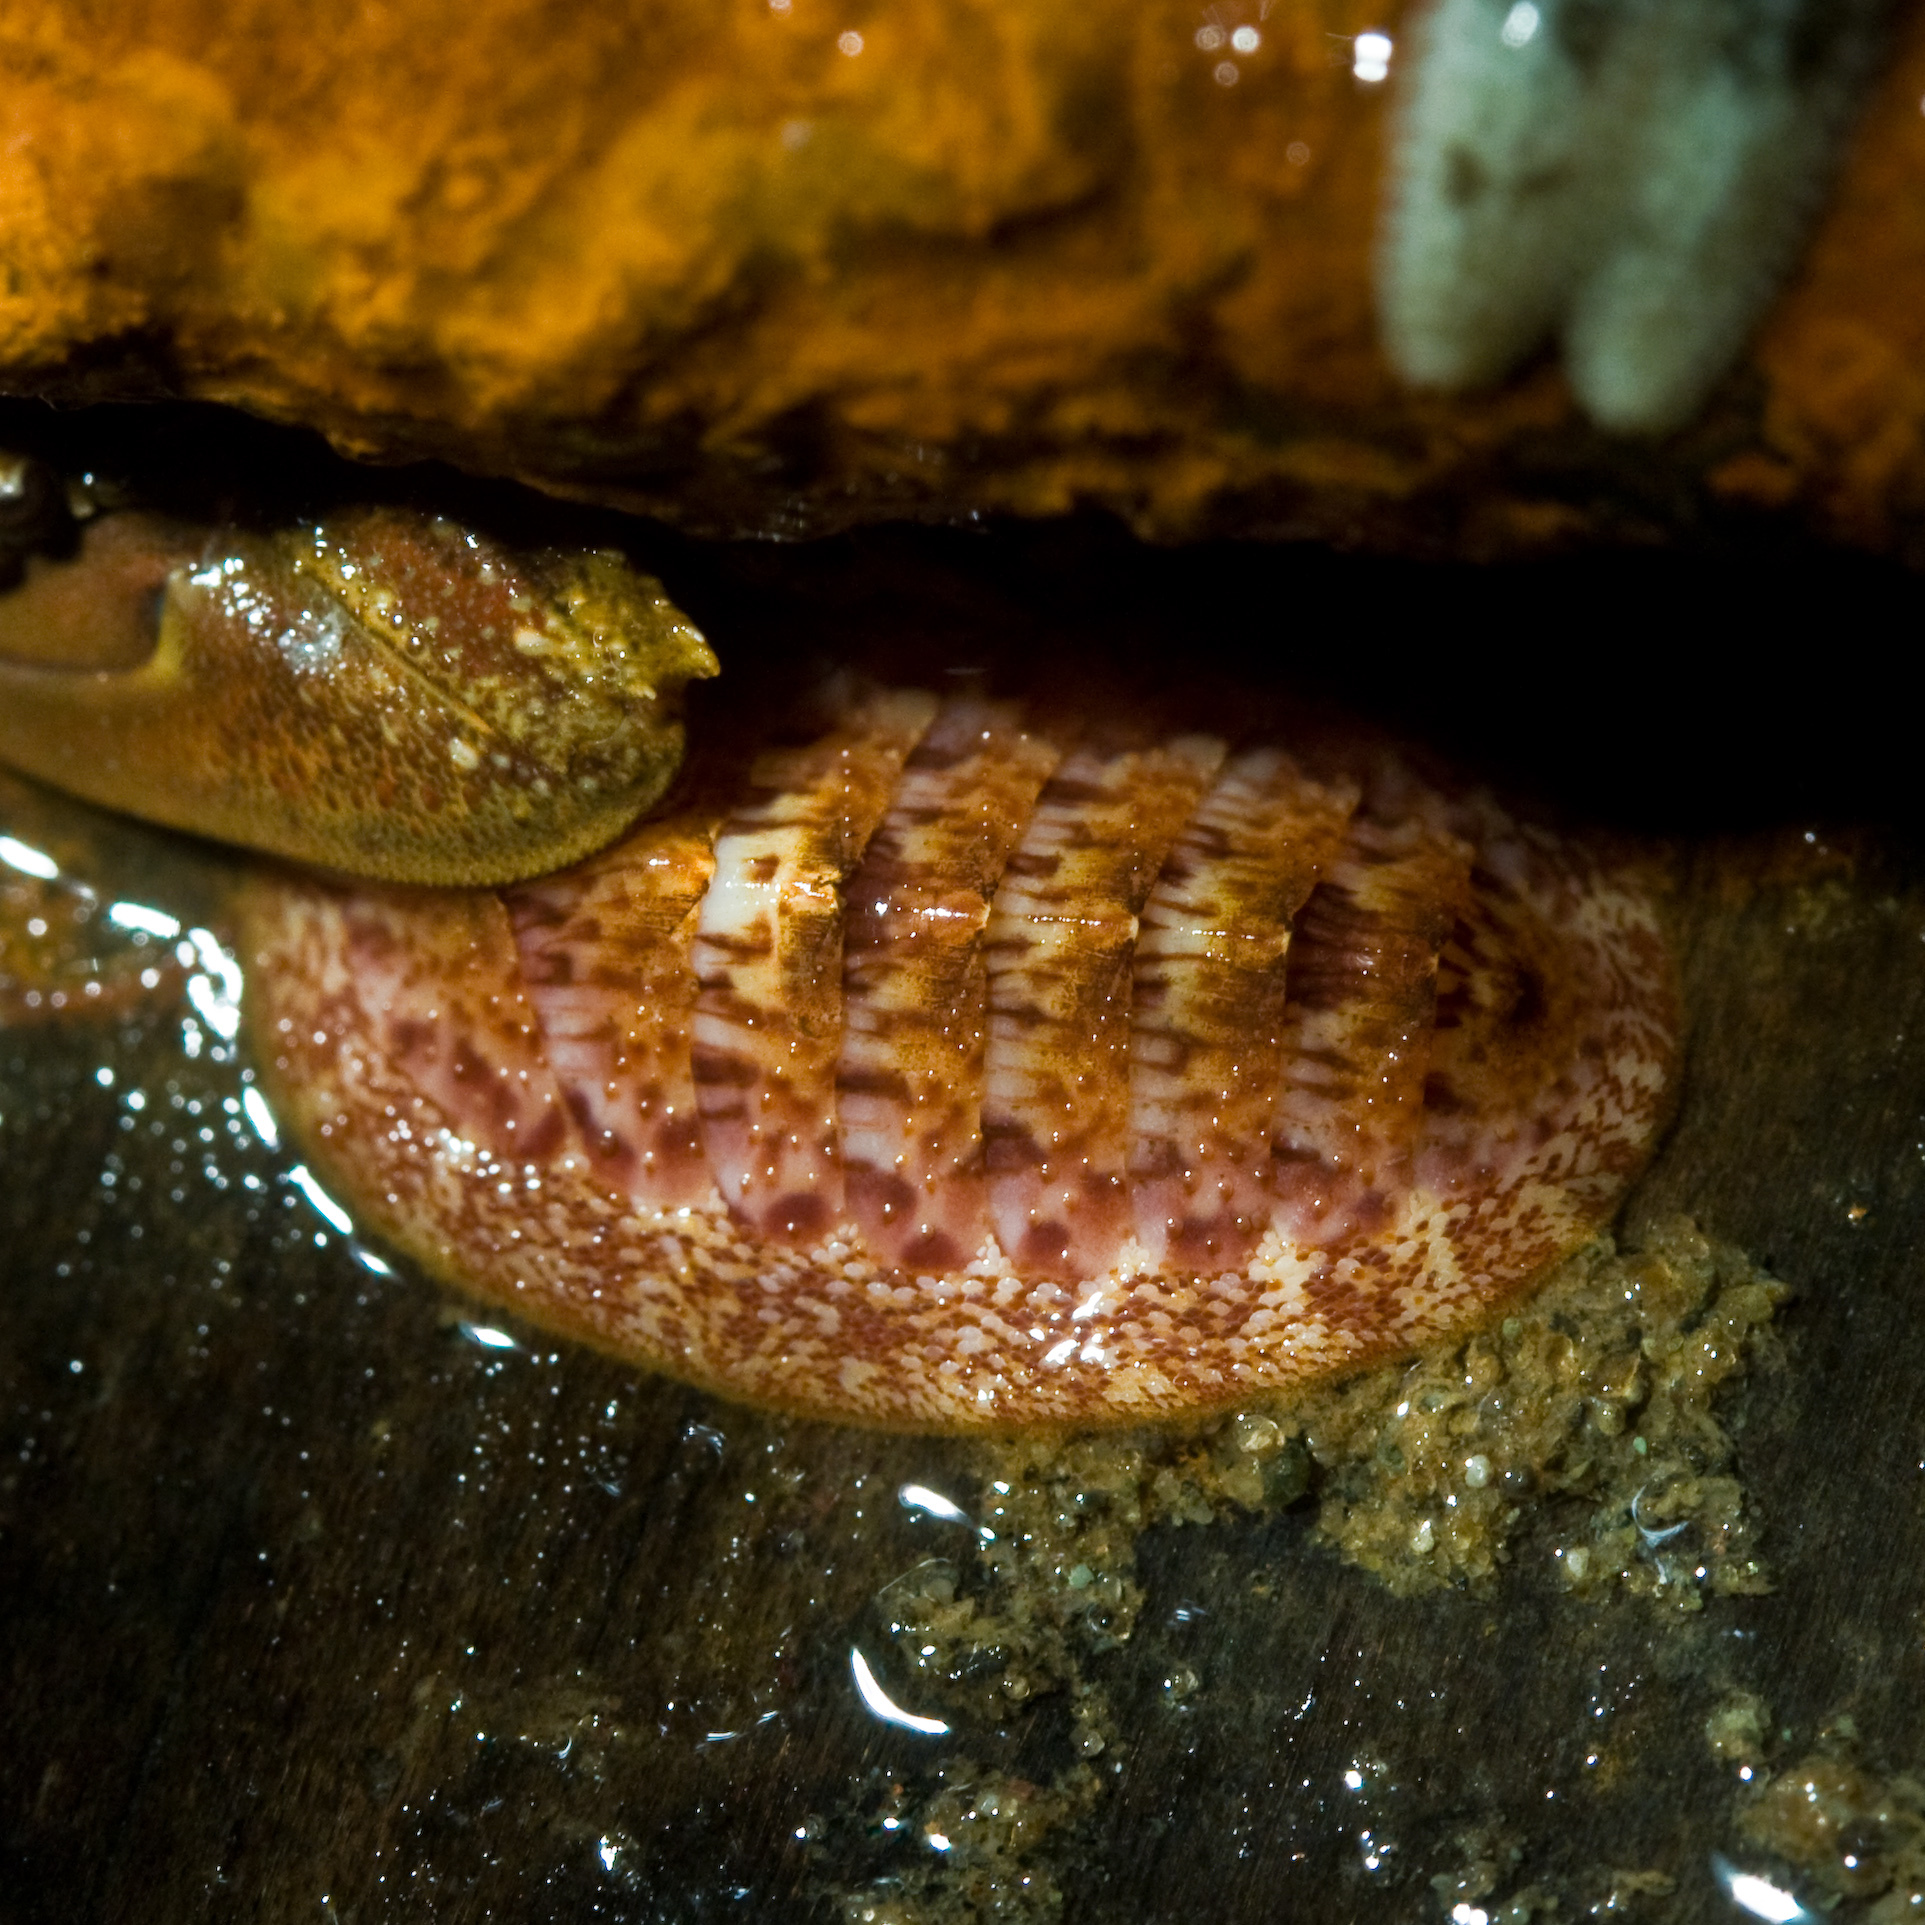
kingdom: Animalia
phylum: Mollusca
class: Polyplacophora
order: Chitonida
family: Ischnochitonidae
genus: Lepidozona
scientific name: Lepidozona mertensii
